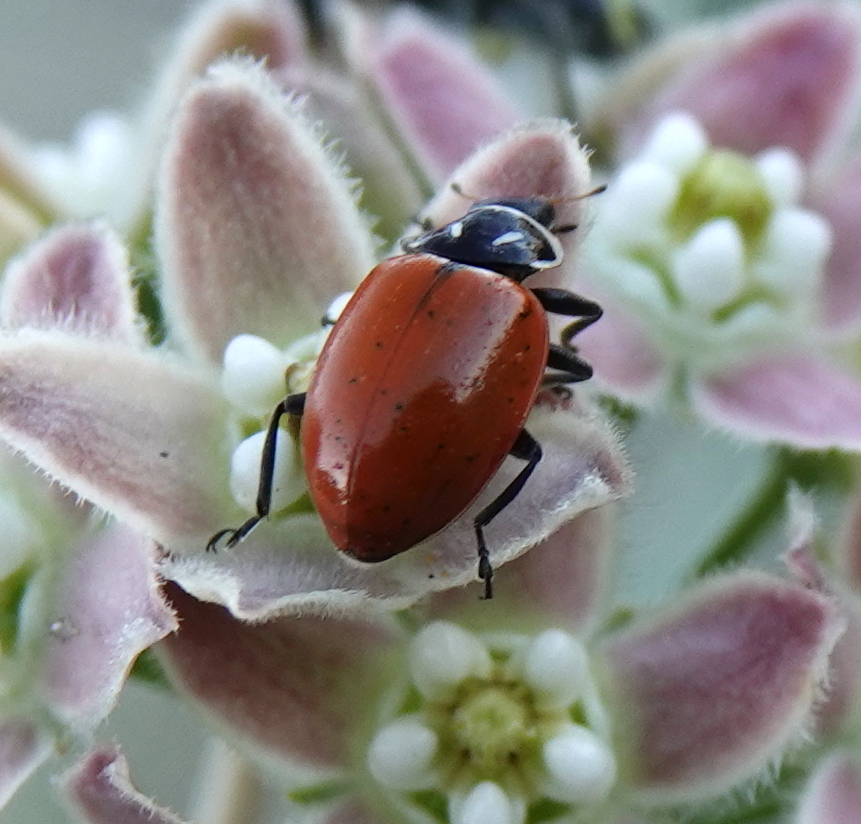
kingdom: Animalia
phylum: Arthropoda
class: Insecta
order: Coleoptera
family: Coccinellidae
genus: Hippodamia
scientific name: Hippodamia convergens
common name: Convergent lady beetle
